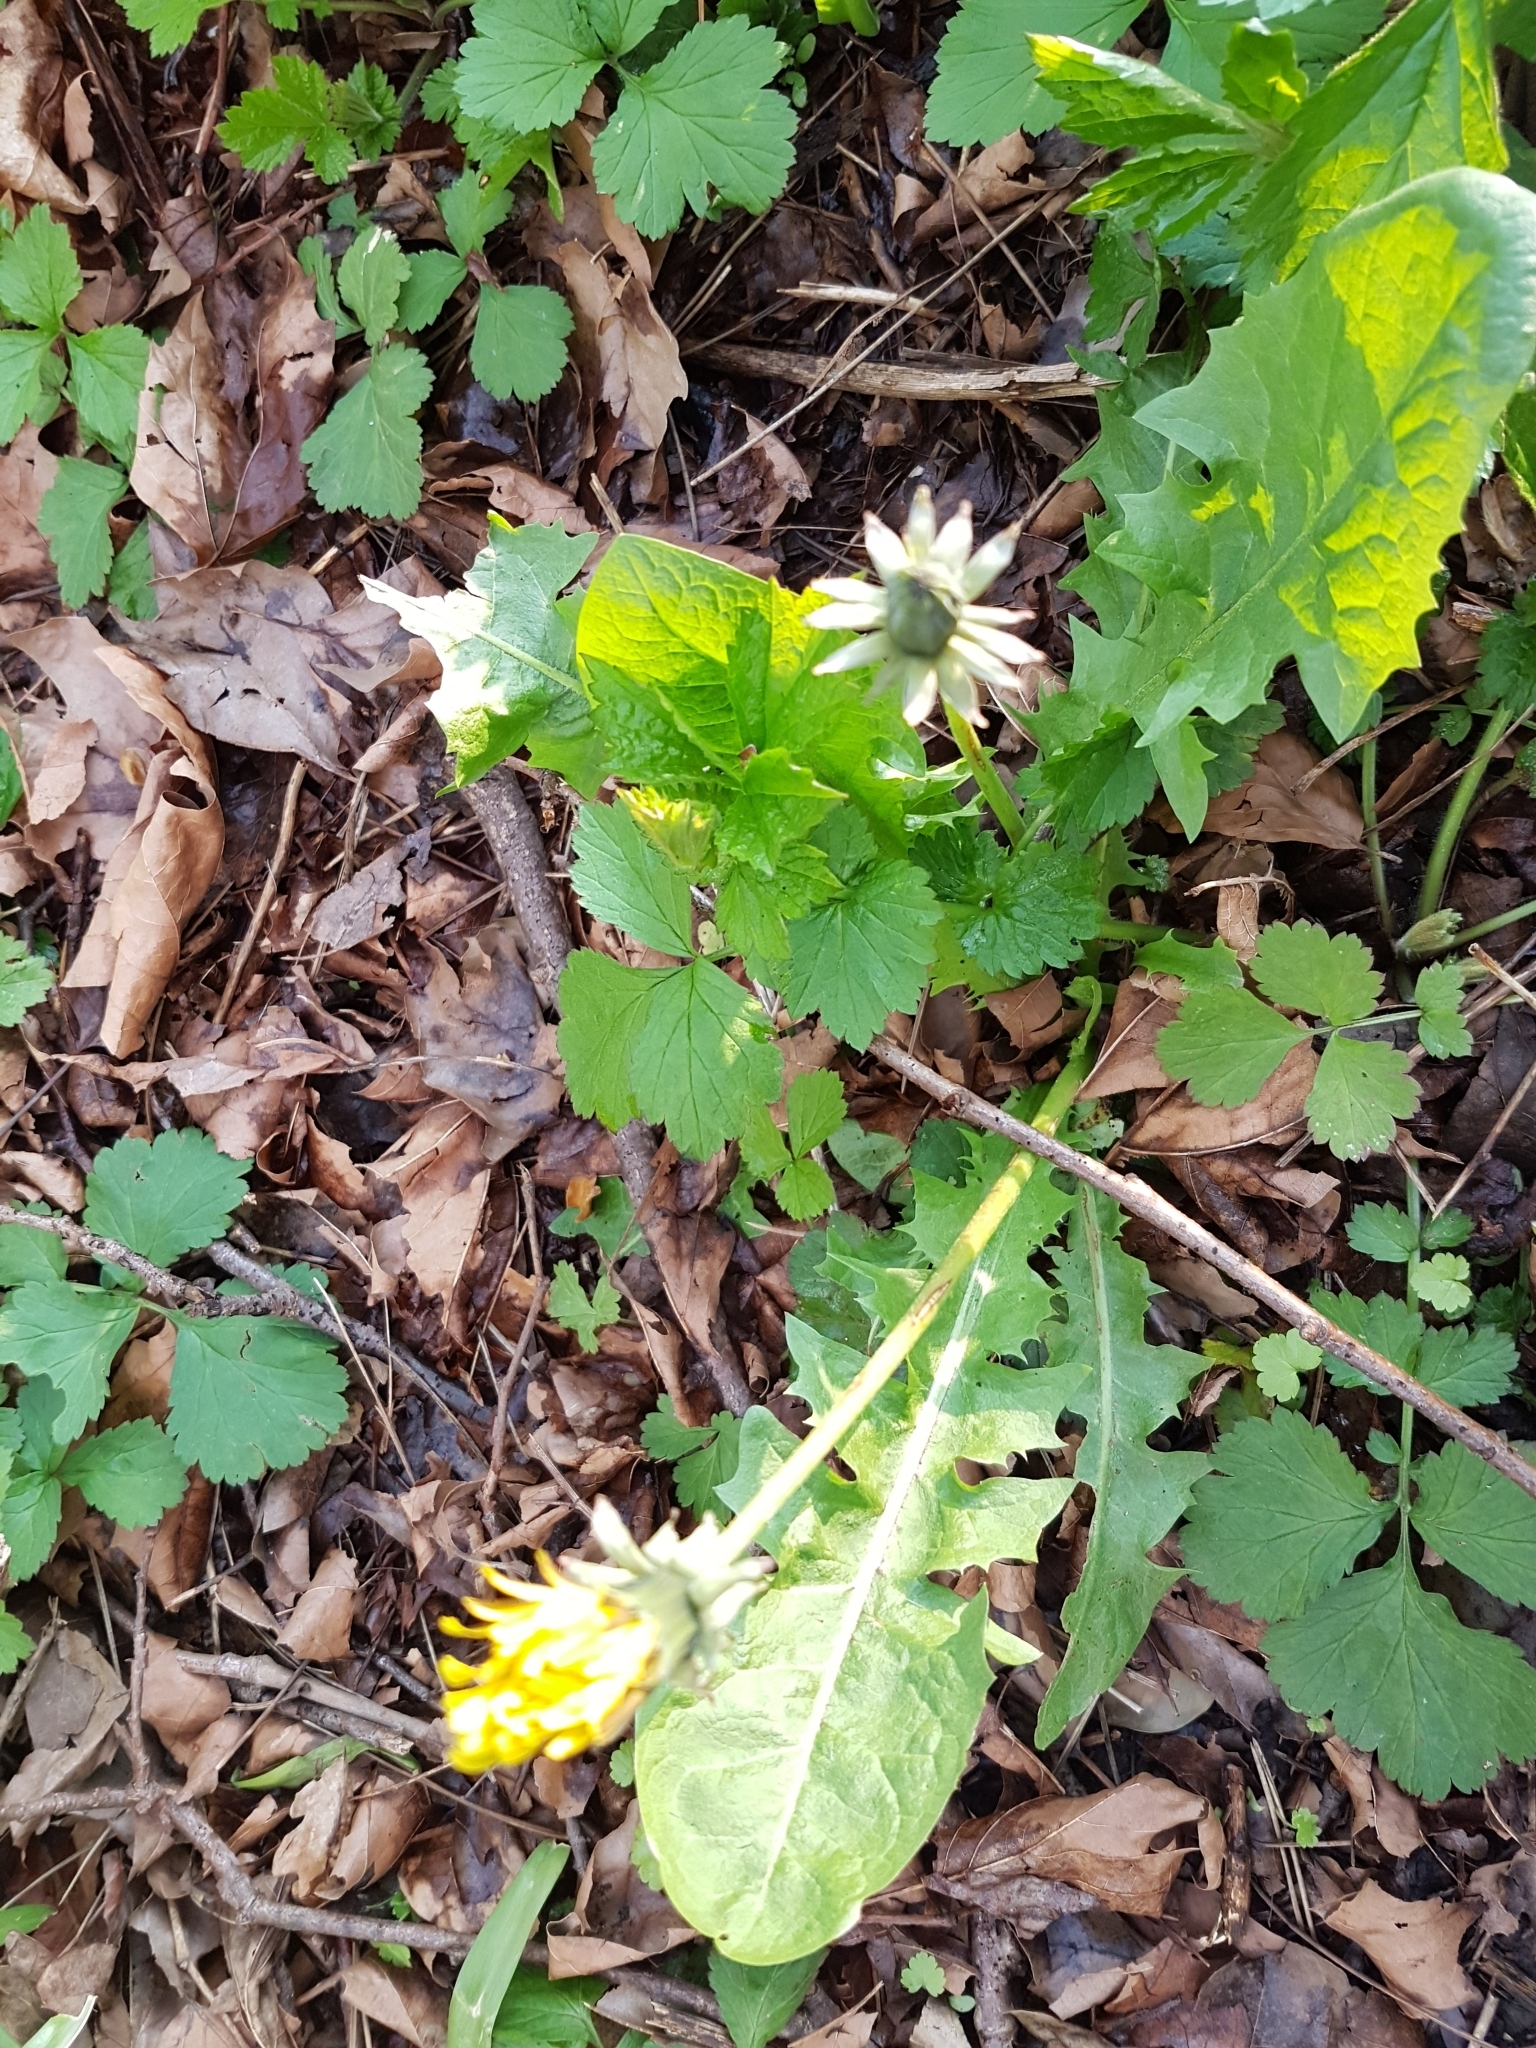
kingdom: Plantae
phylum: Tracheophyta
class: Magnoliopsida
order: Asterales
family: Asteraceae
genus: Taraxacum
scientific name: Taraxacum officinale
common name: Common dandelion
